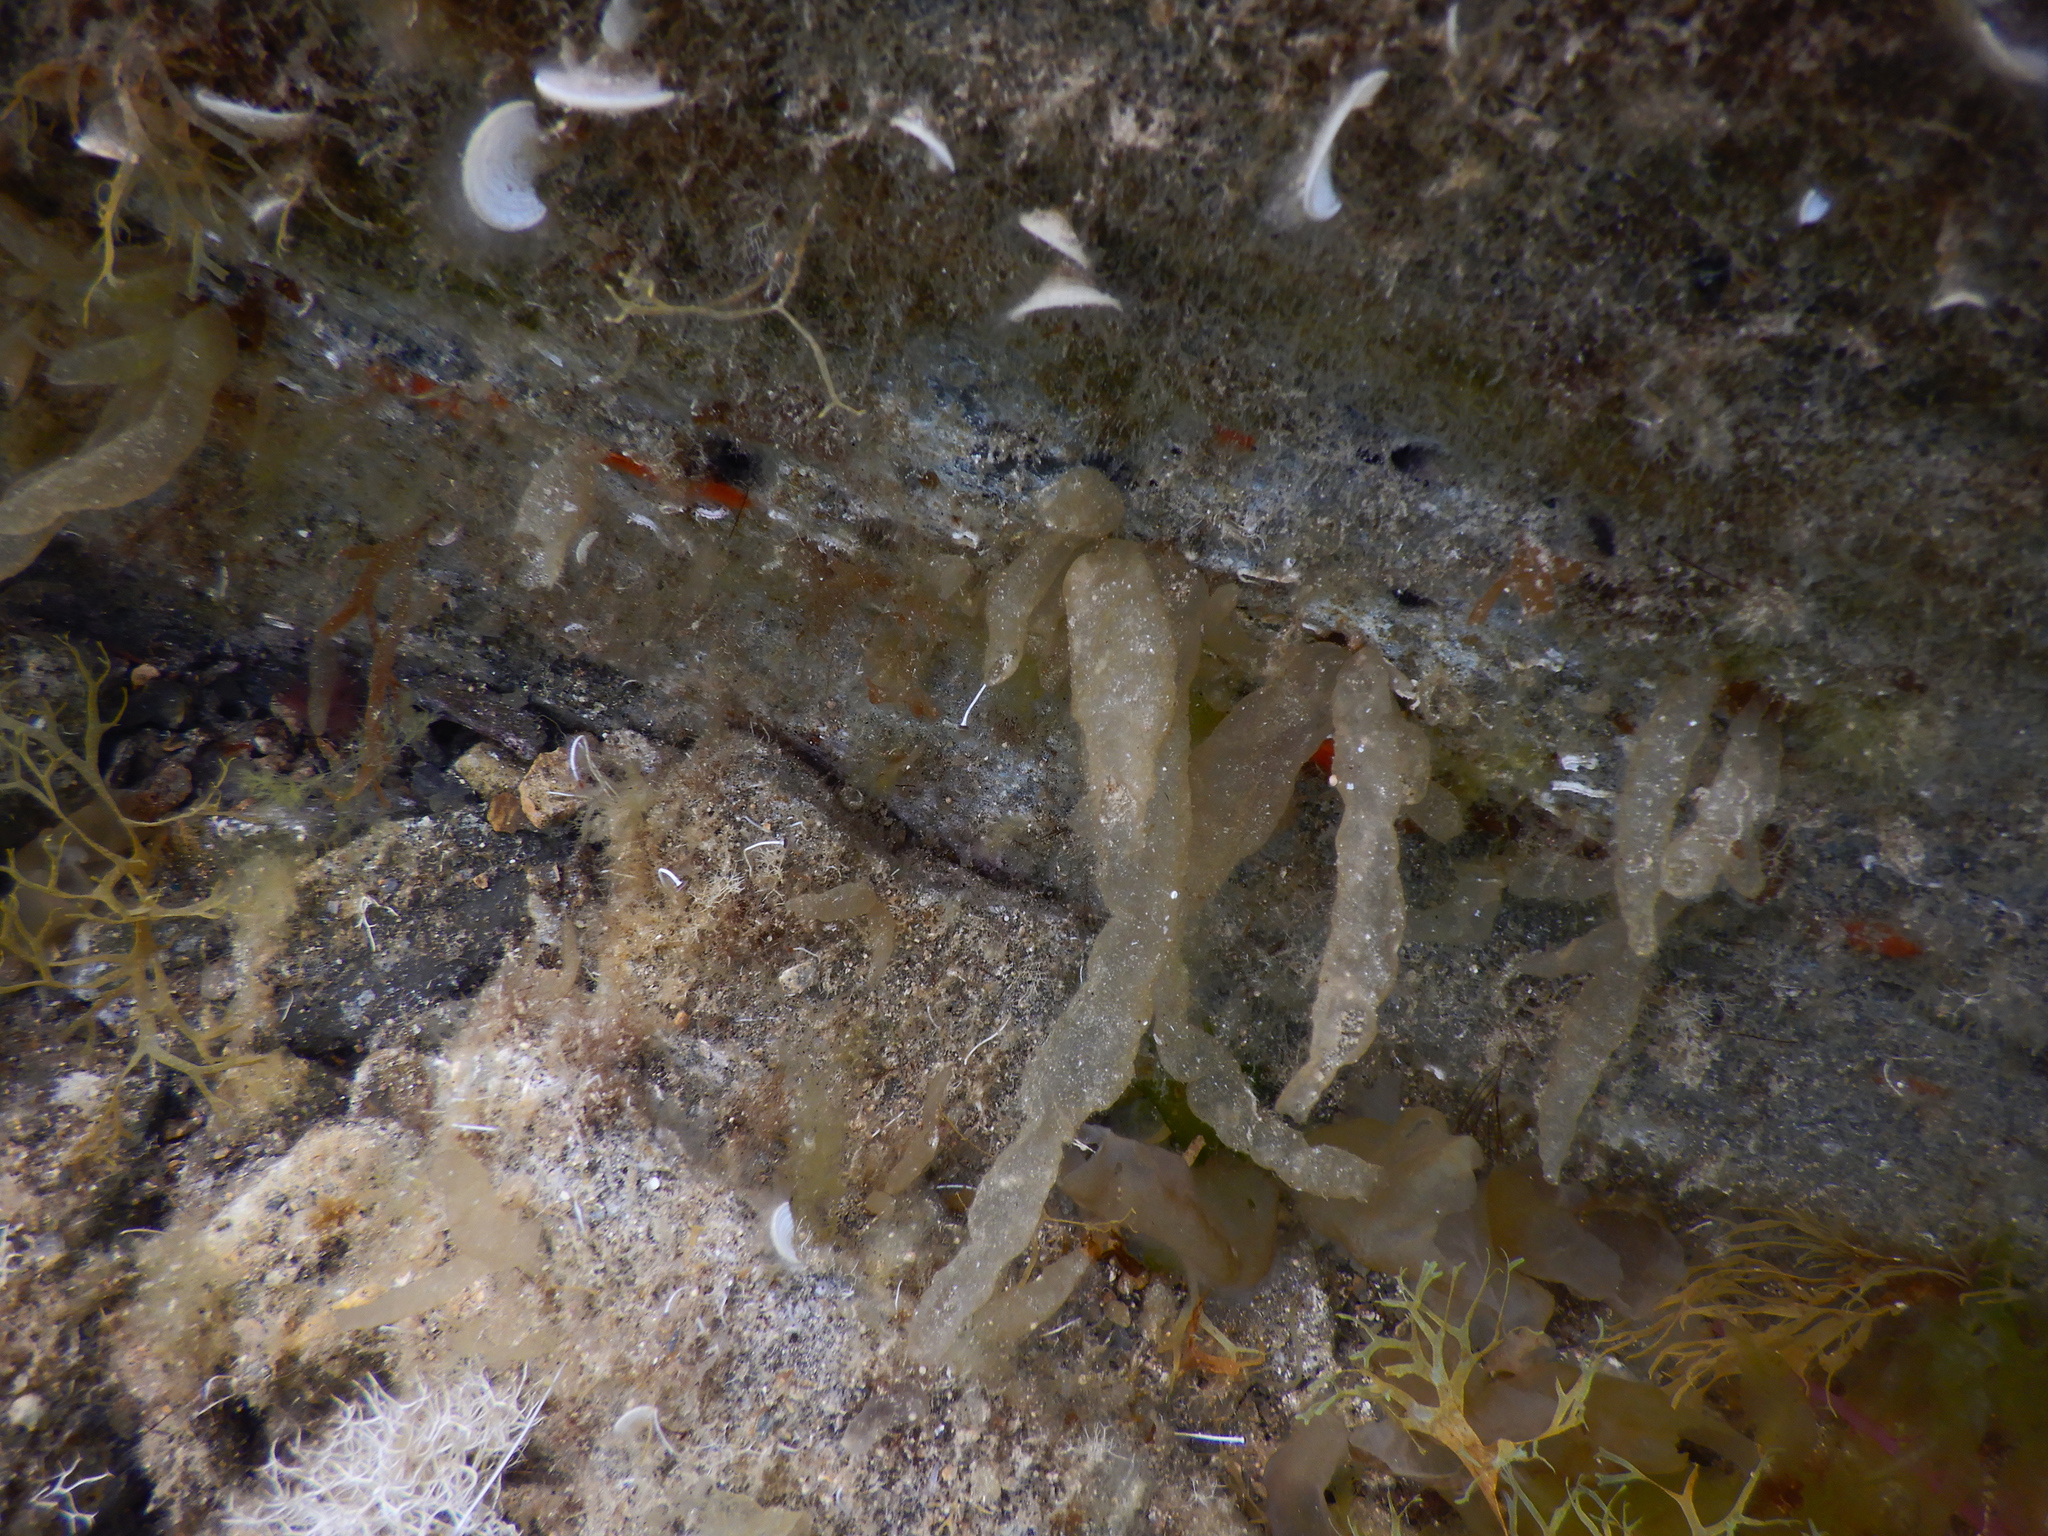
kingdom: Chromista
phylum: Ochrophyta
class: Phaeophyceae
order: Ectocarpales
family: Chordariaceae
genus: Asperococcus
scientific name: Asperococcus bullosus
